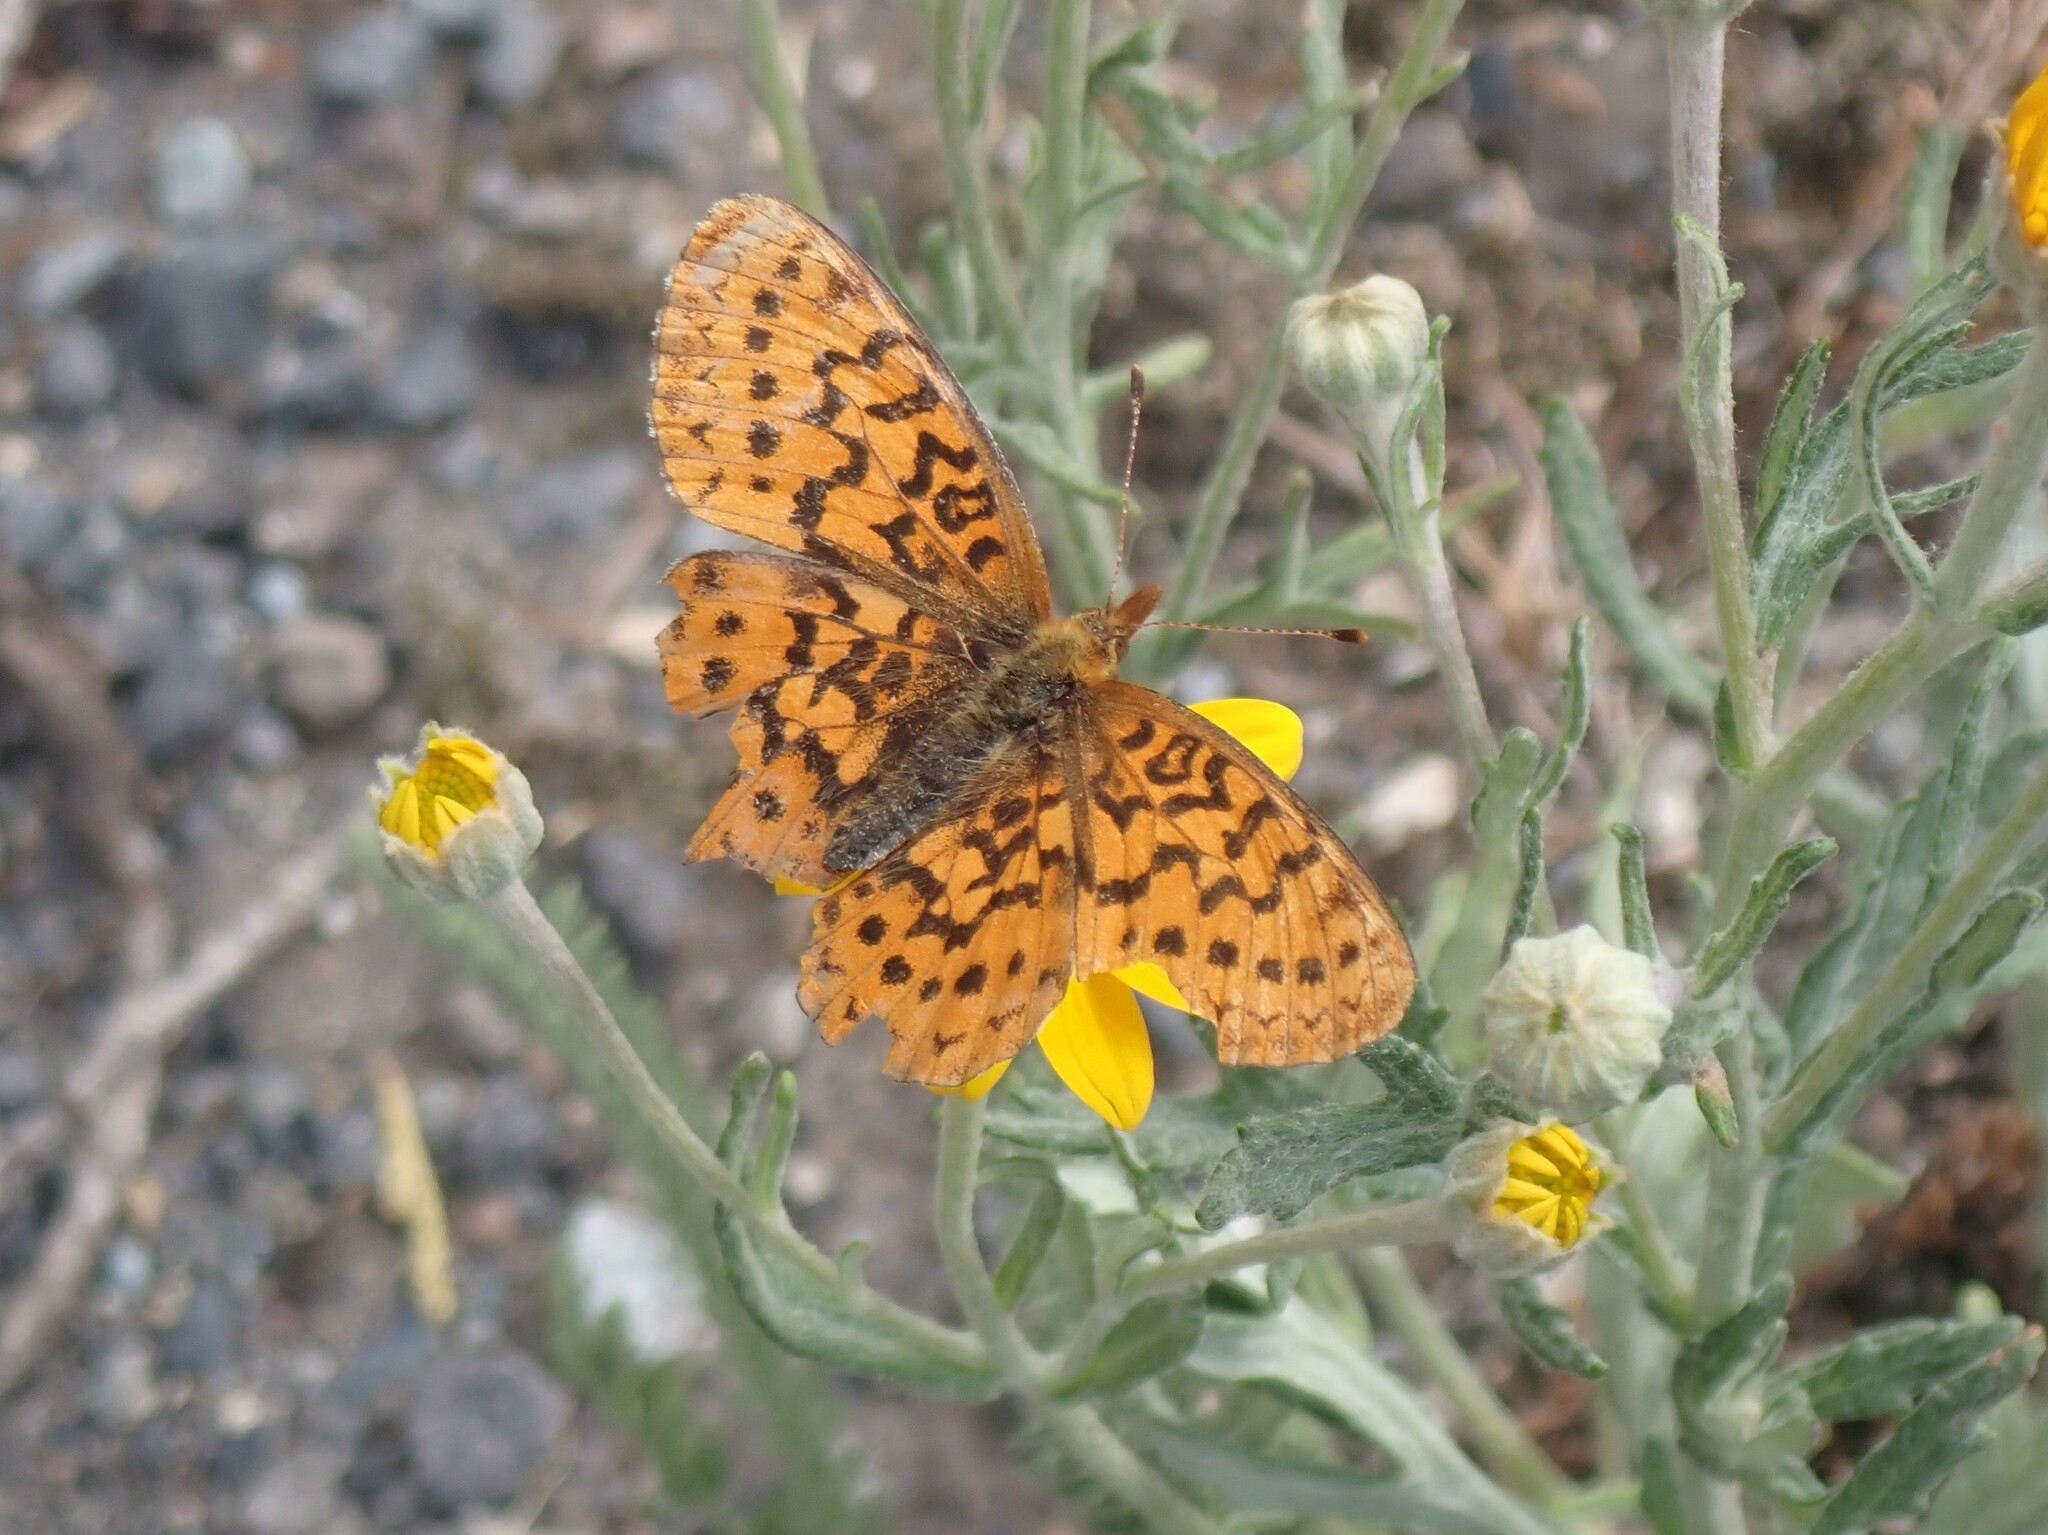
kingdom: Animalia
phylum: Arthropoda
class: Insecta
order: Lepidoptera
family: Nymphalidae
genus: Boloria
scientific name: Boloria epithore
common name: Pacific fritillary
